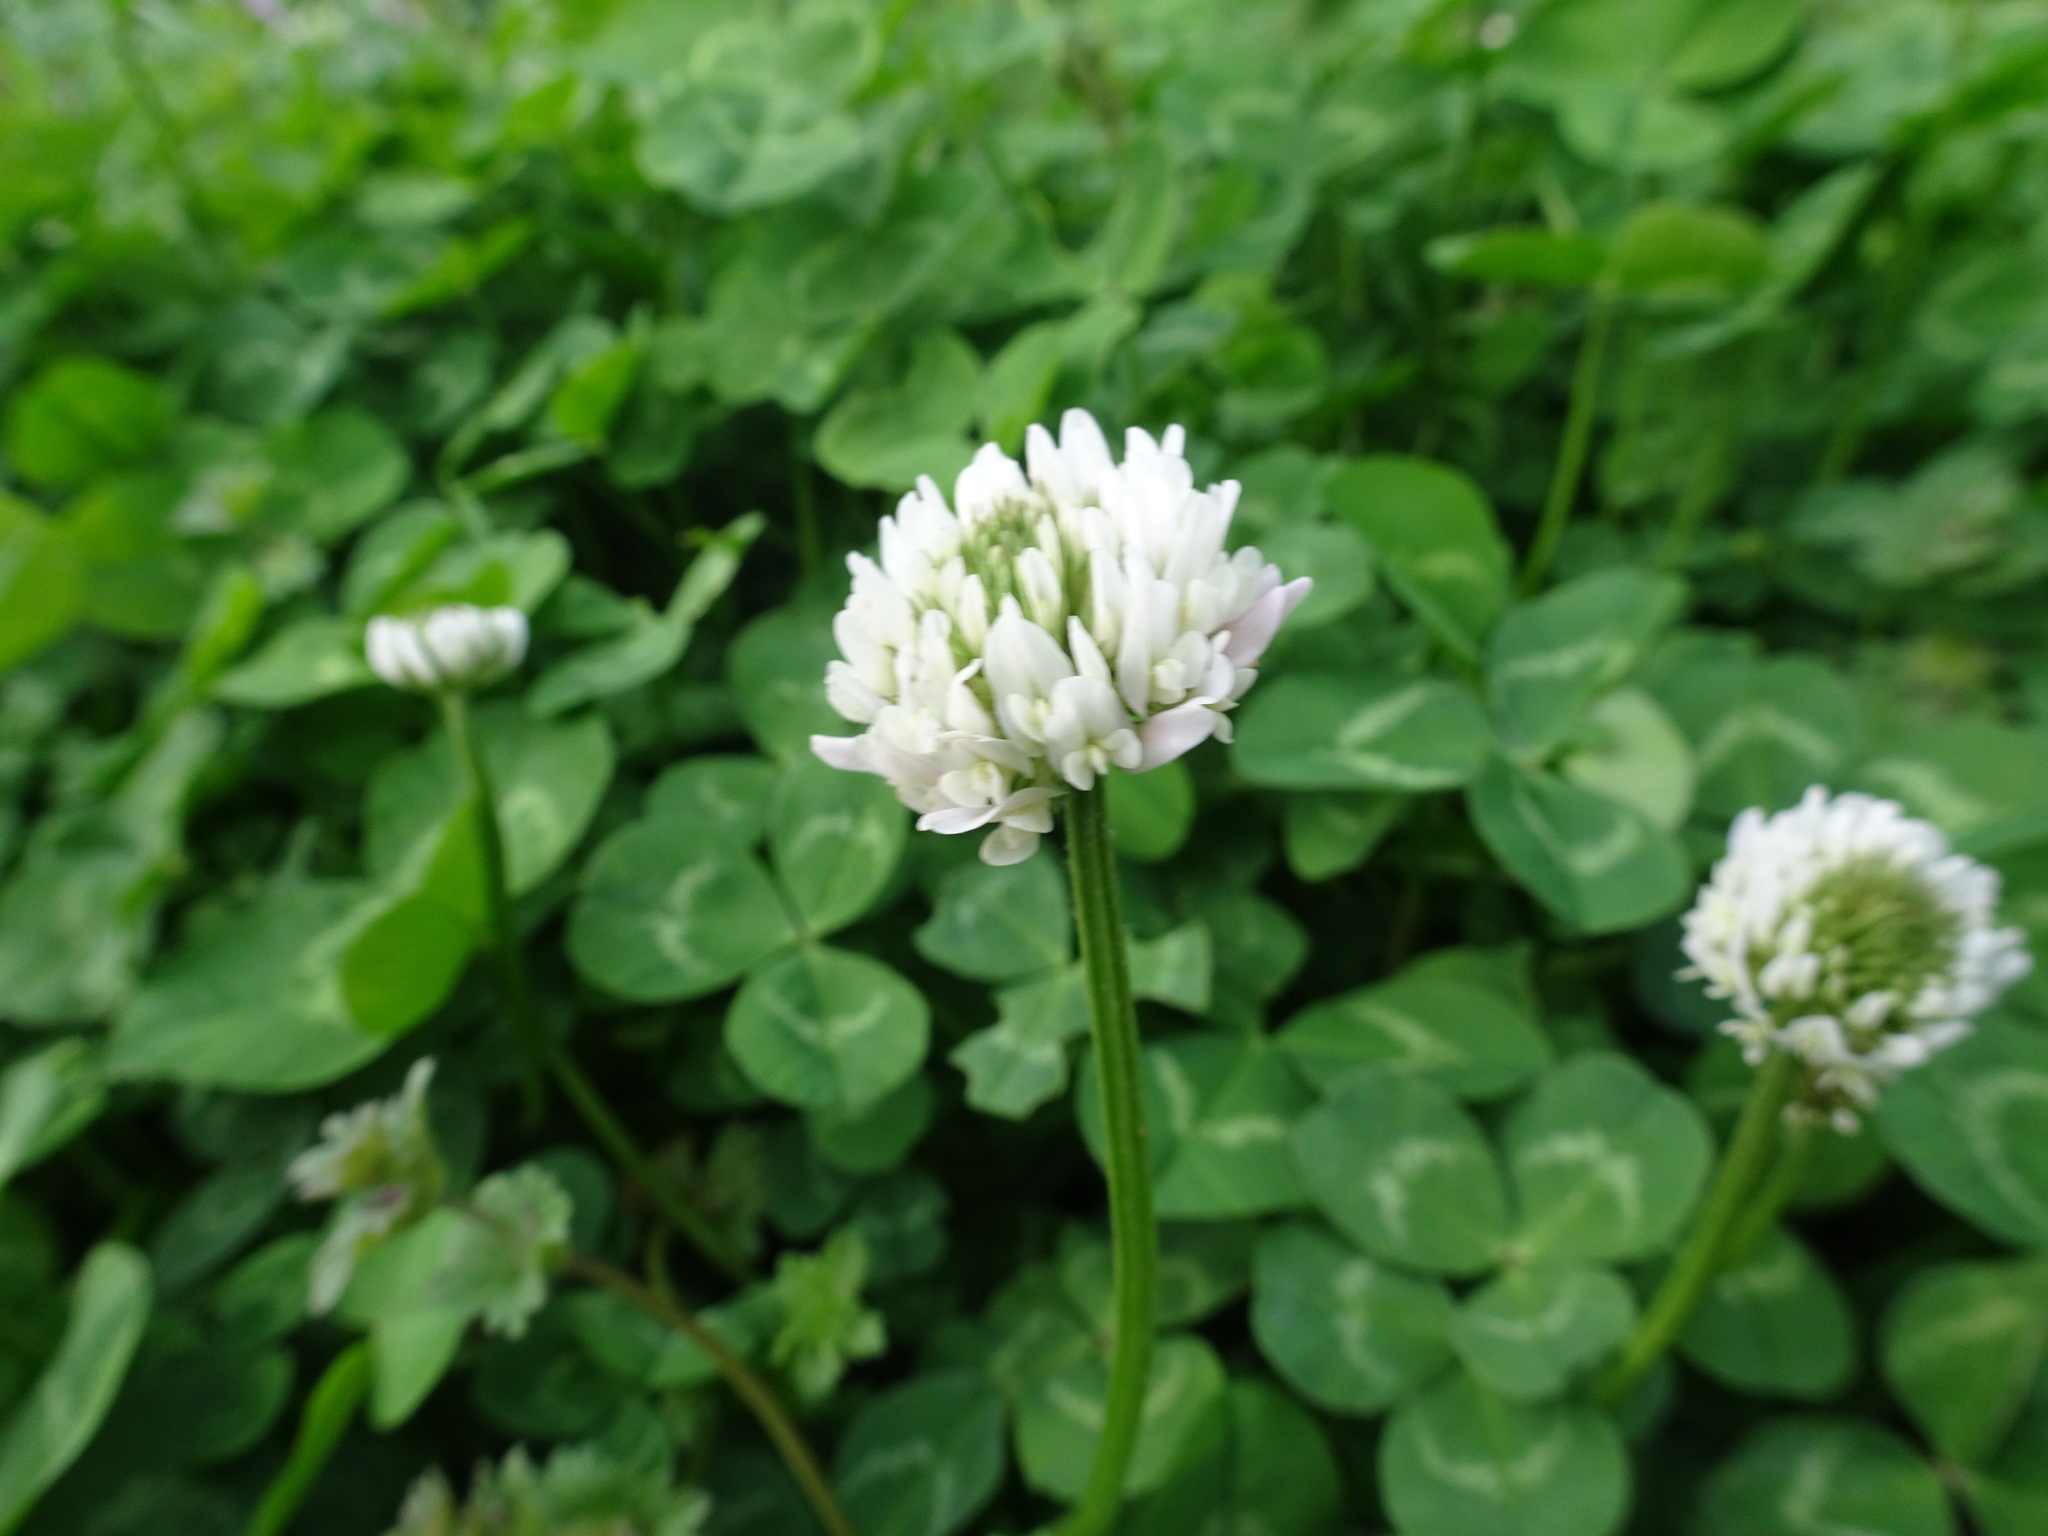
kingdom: Plantae
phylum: Tracheophyta
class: Magnoliopsida
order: Fabales
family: Fabaceae
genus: Trifolium
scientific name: Trifolium repens
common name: White clover
